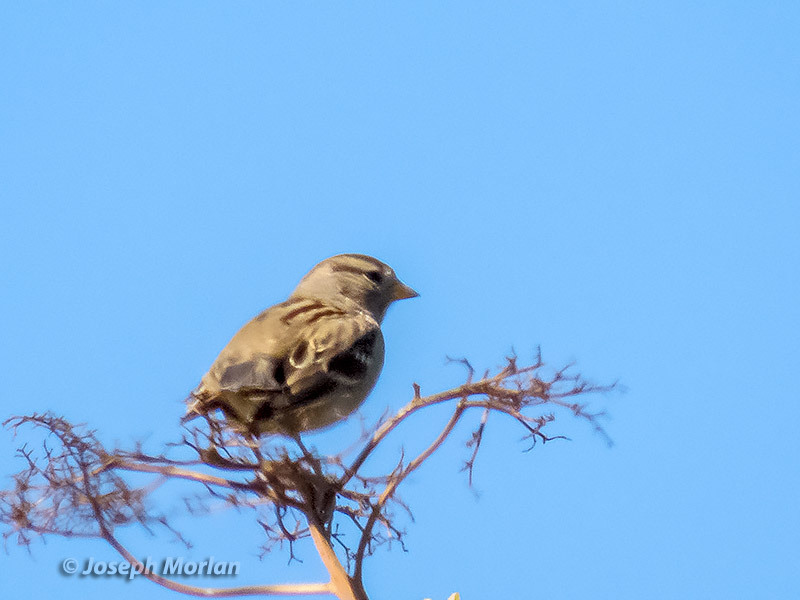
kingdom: Animalia
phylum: Chordata
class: Aves
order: Passeriformes
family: Passerellidae
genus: Zonotrichia
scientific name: Zonotrichia leucophrys
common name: White-crowned sparrow
